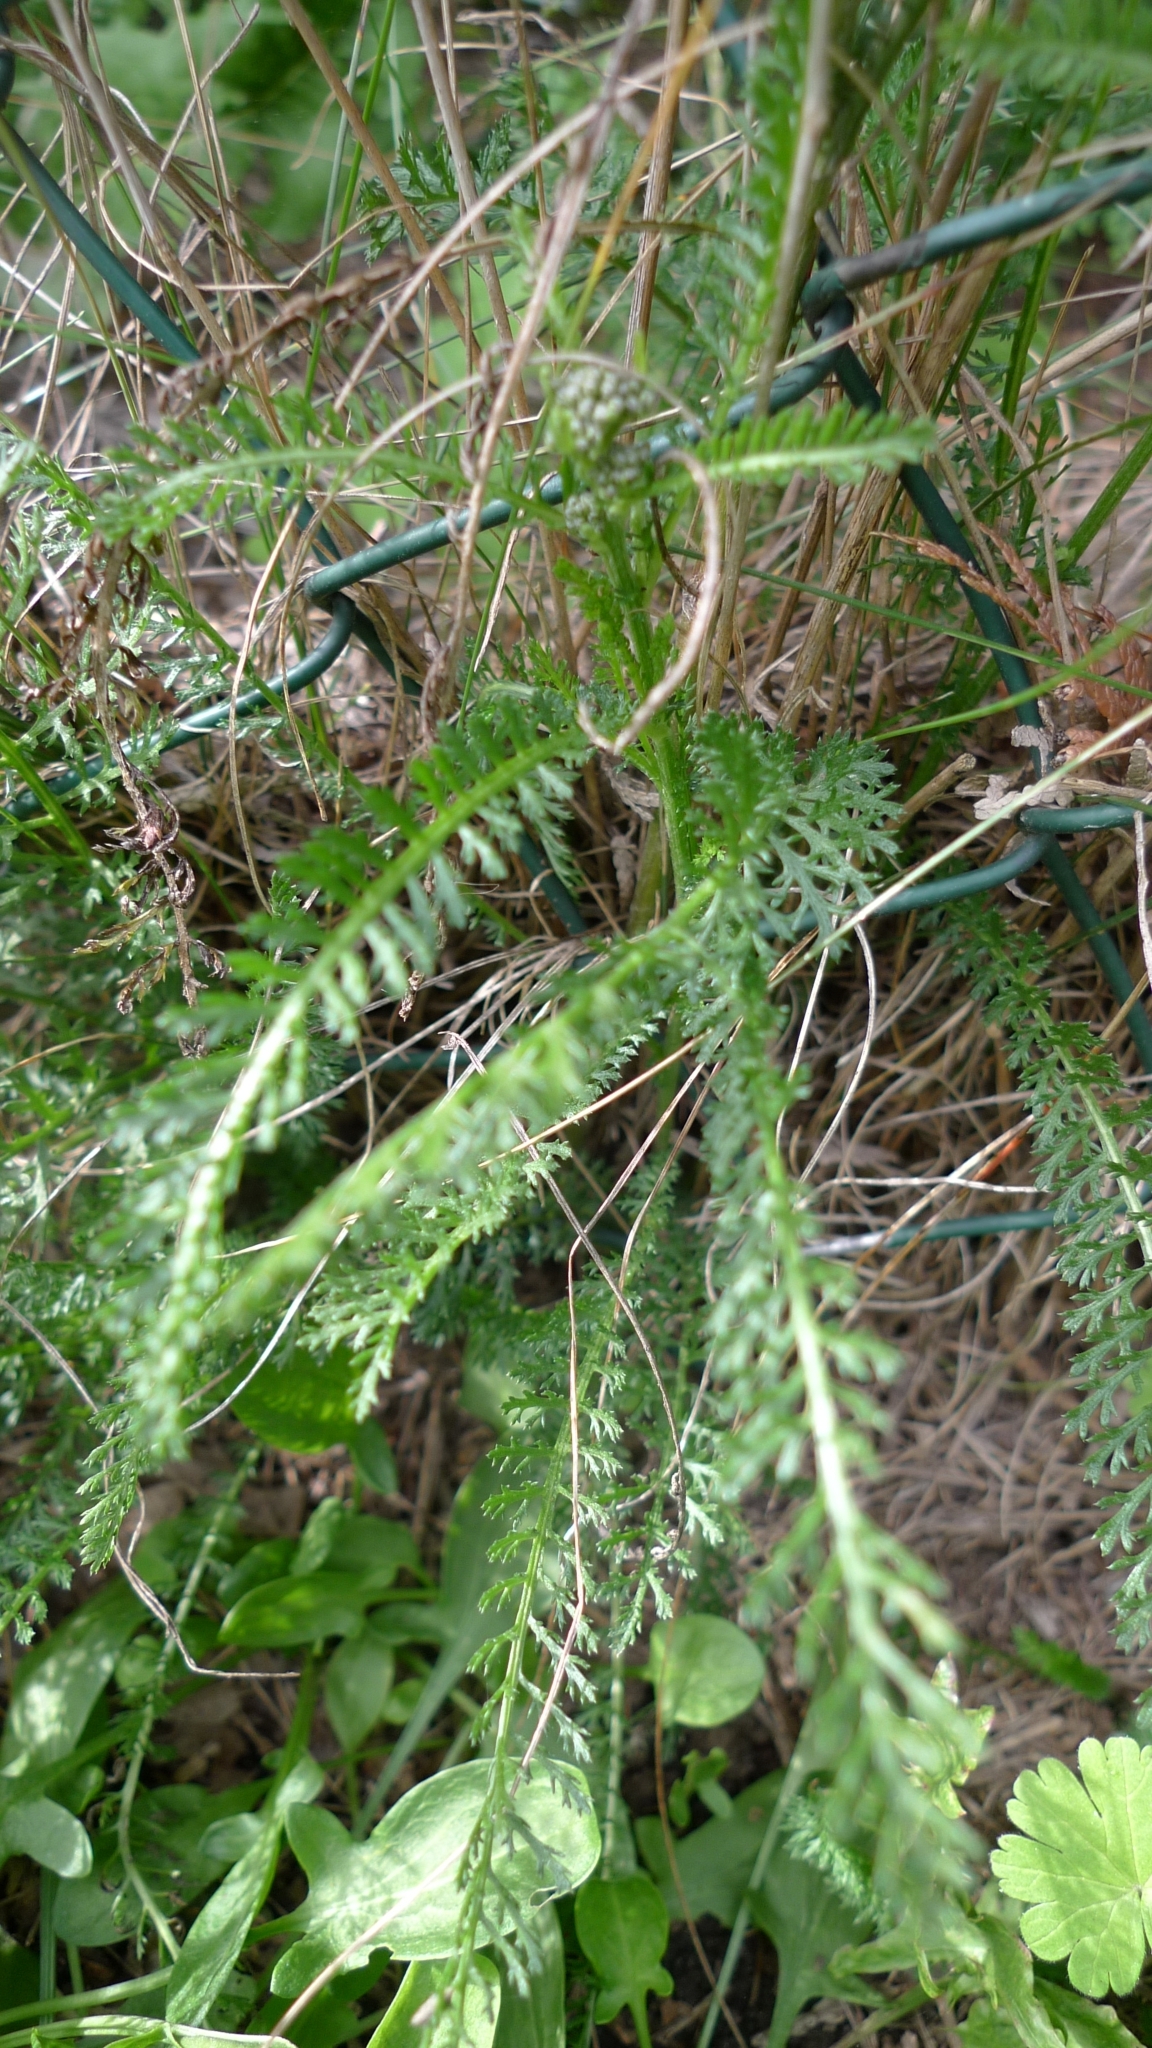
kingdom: Plantae
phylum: Tracheophyta
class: Magnoliopsida
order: Asterales
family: Asteraceae
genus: Achillea
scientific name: Achillea millefolium
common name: Yarrow
